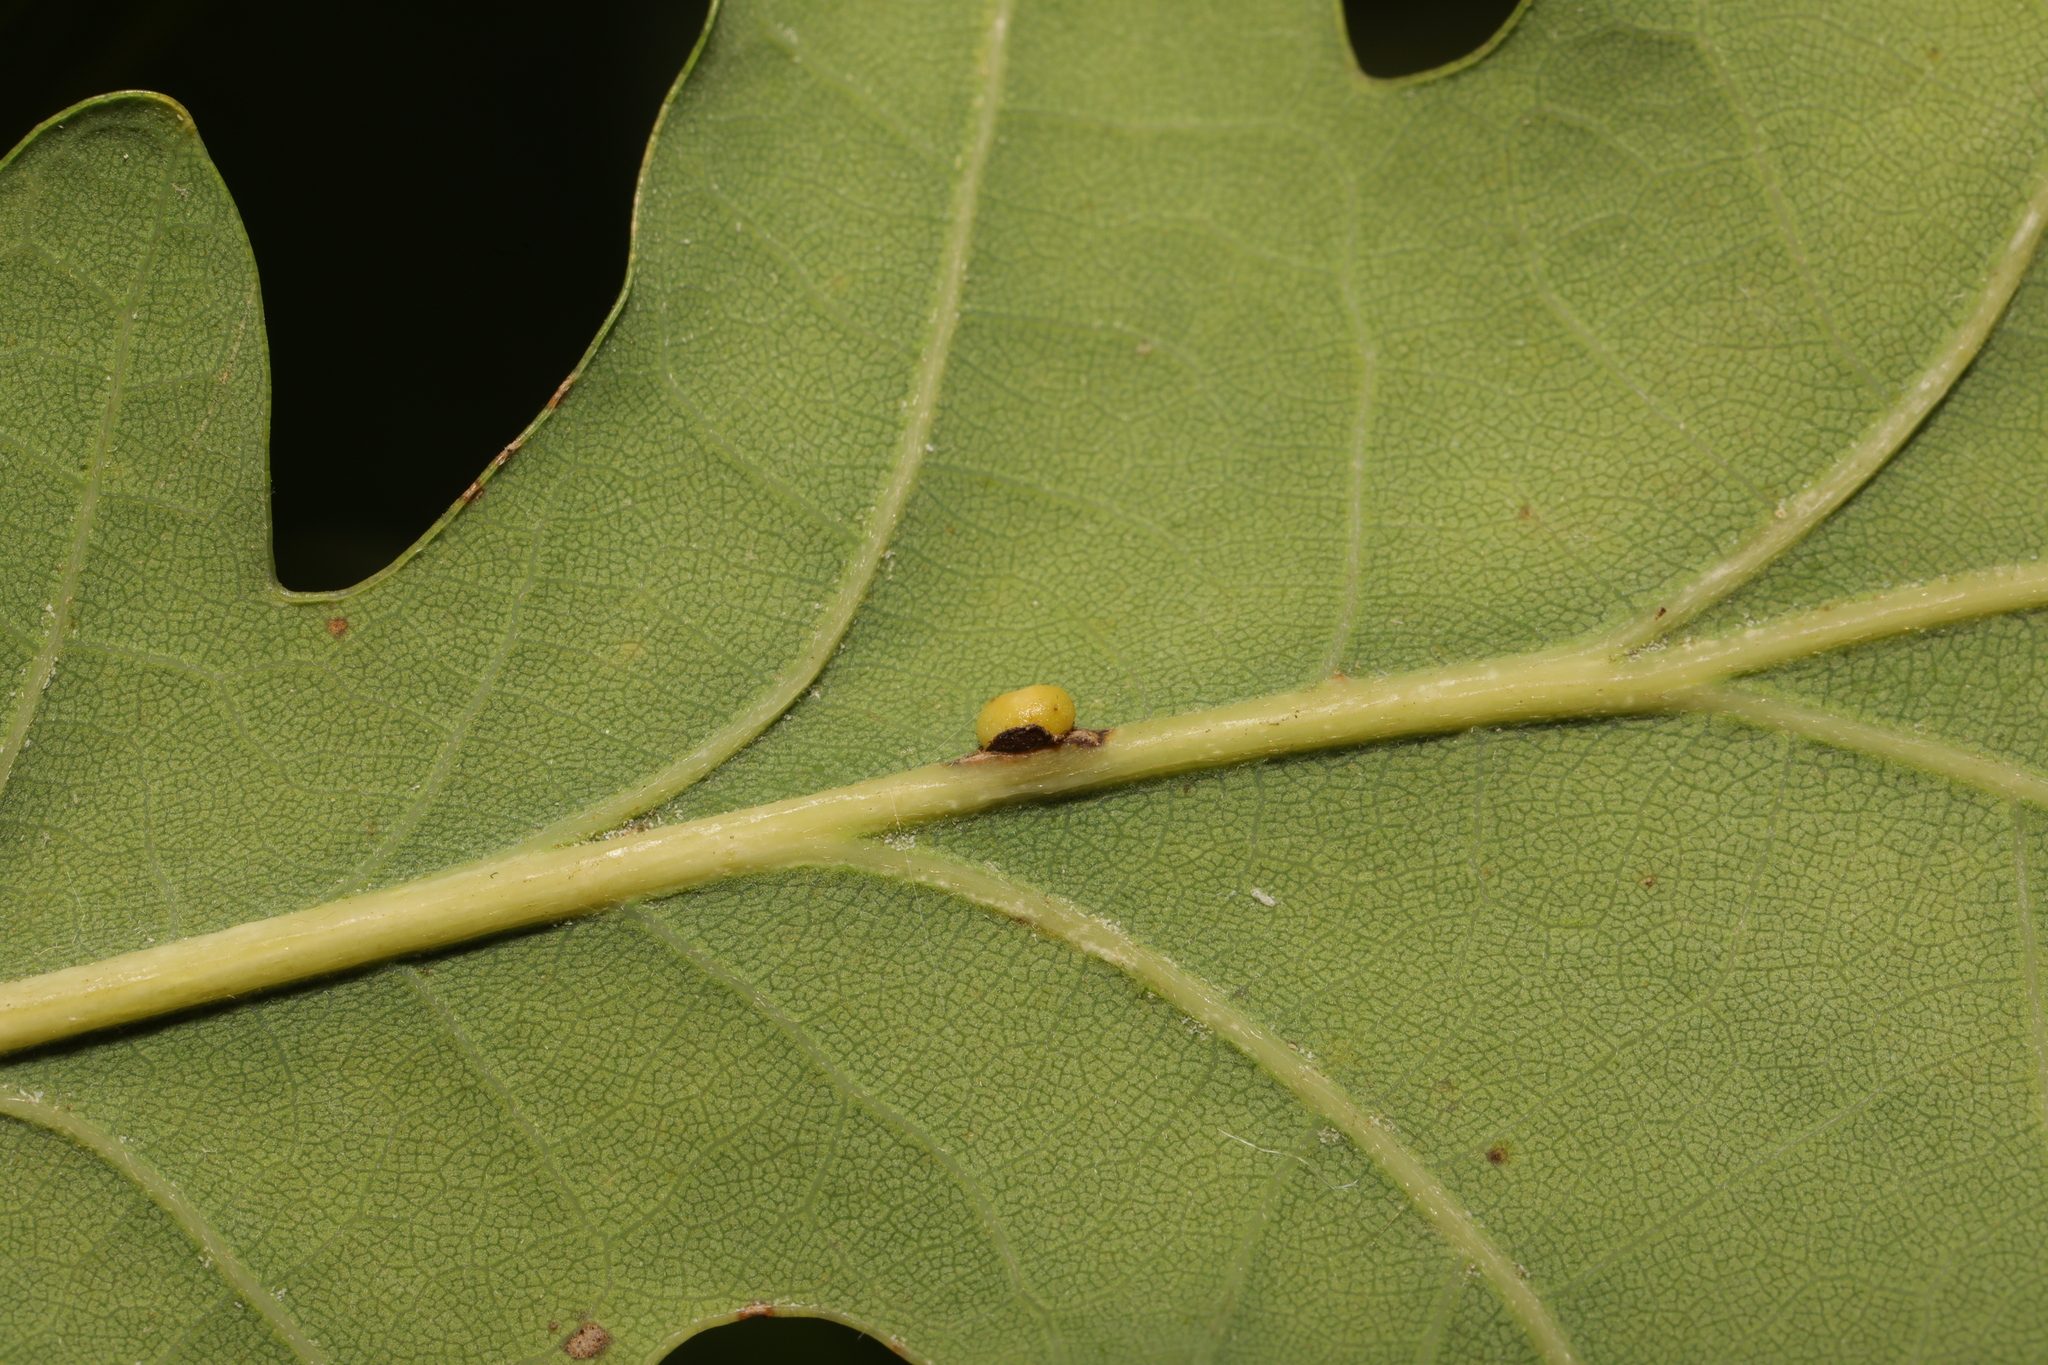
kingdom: Animalia
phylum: Arthropoda
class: Insecta
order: Hymenoptera
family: Cynipidae
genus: Neuroterus
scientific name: Neuroterus anthracinus
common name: Oyster gall
